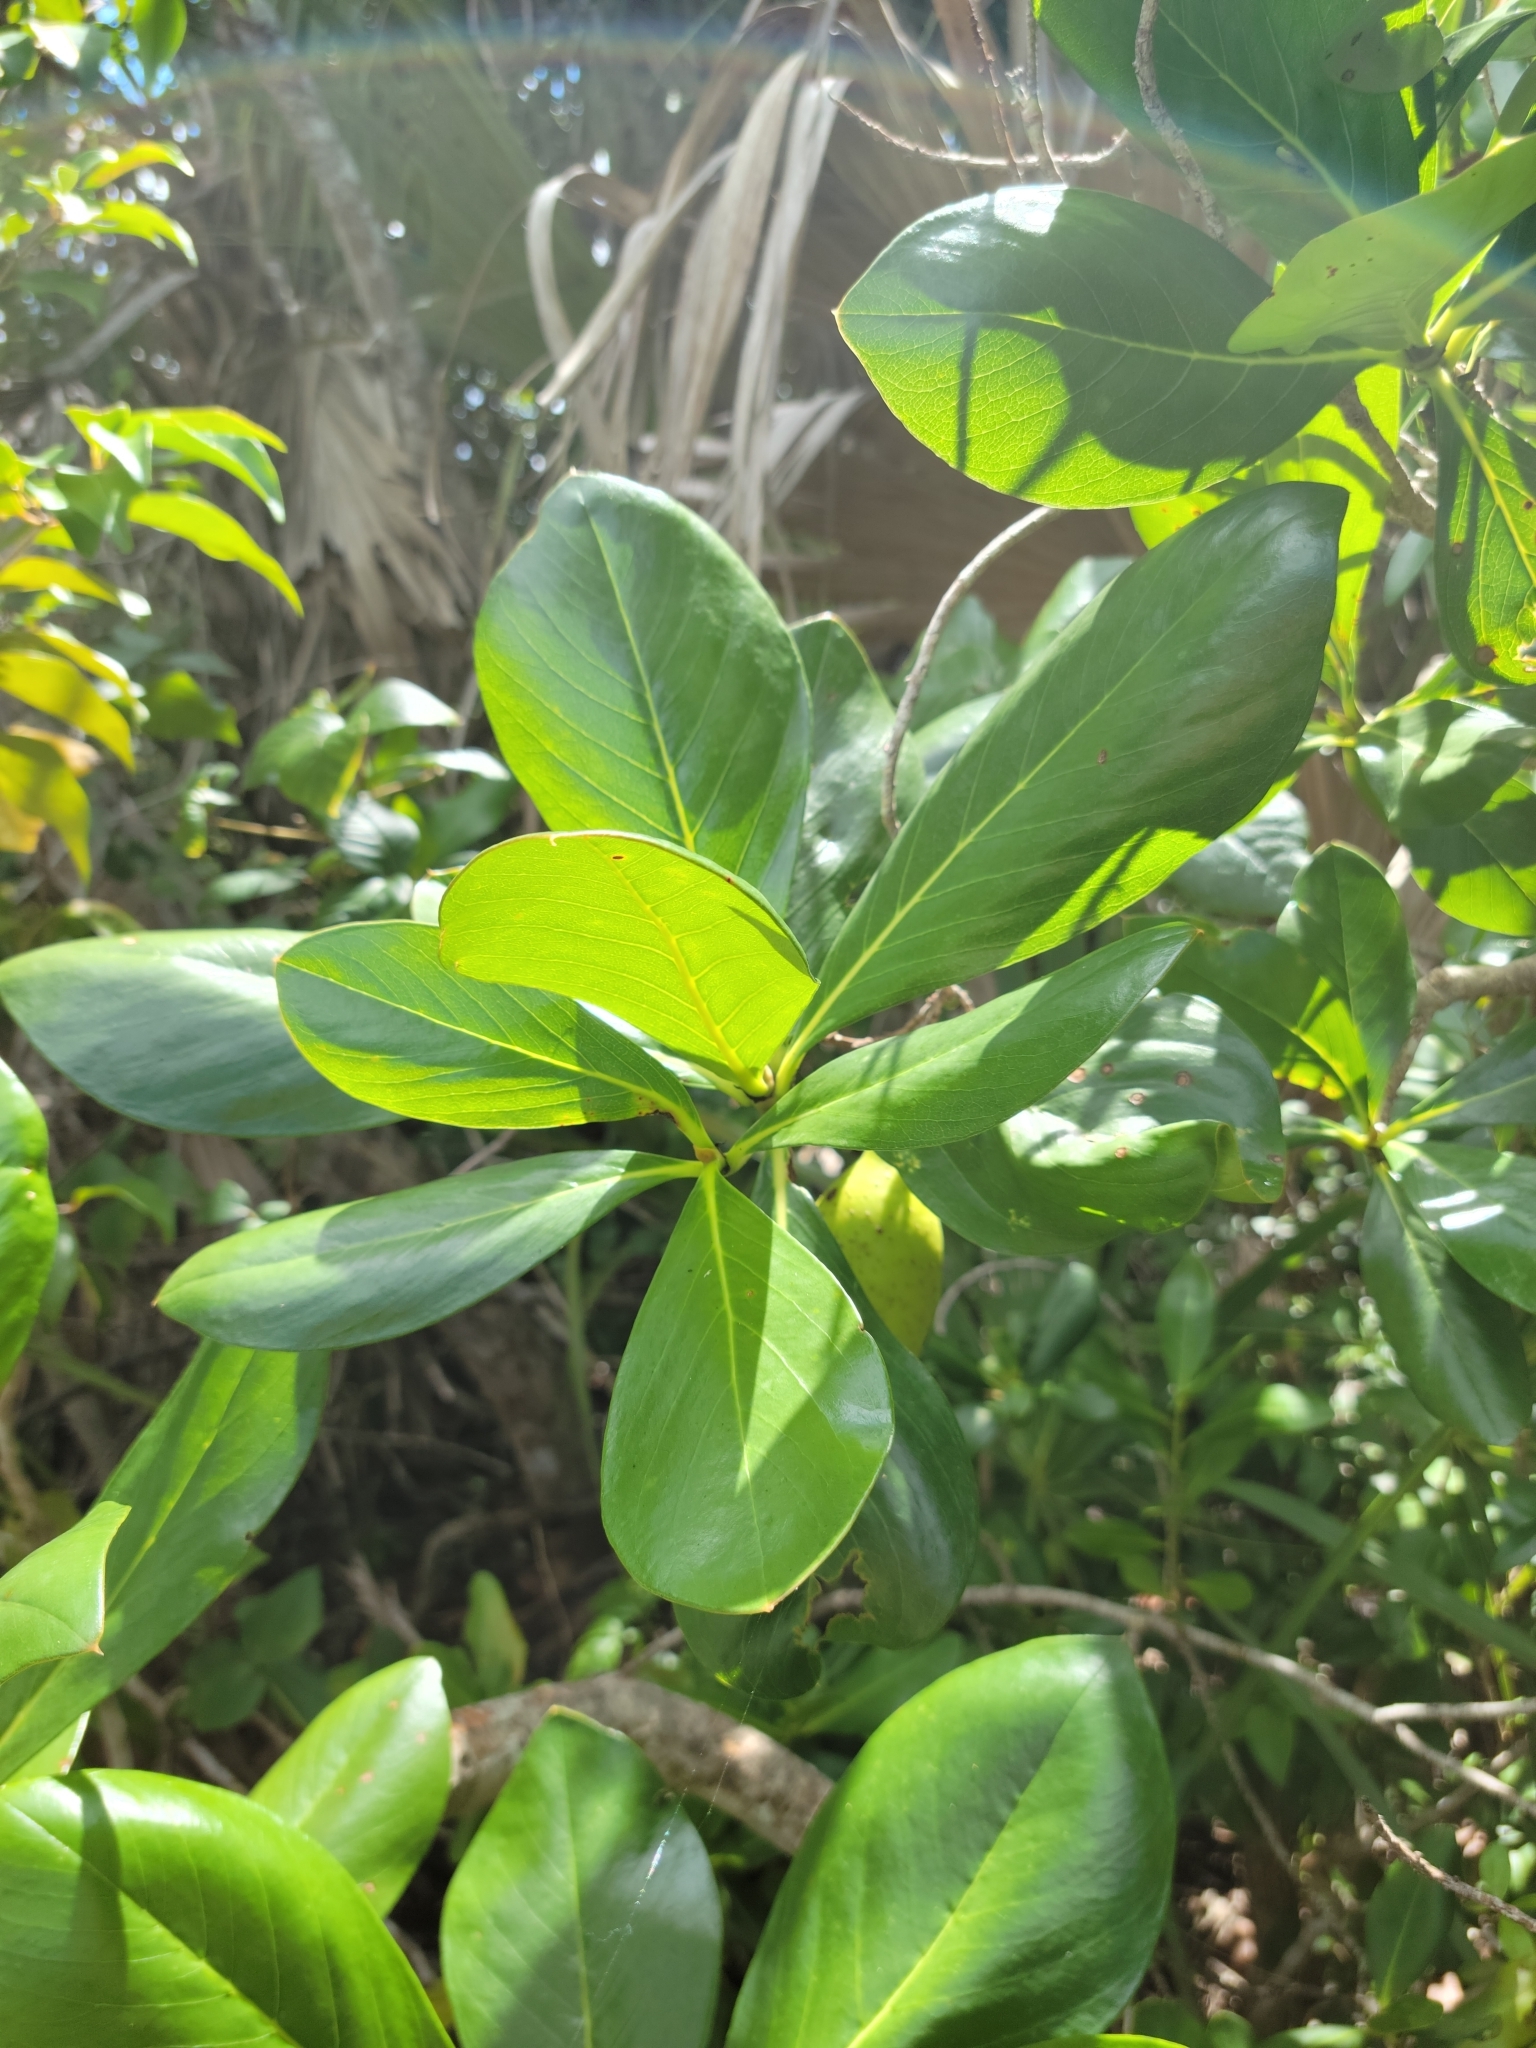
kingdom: Plantae
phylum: Tracheophyta
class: Magnoliopsida
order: Gentianales
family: Rubiaceae
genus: Casasia
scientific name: Casasia clusiifolia
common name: Seven-year apple
